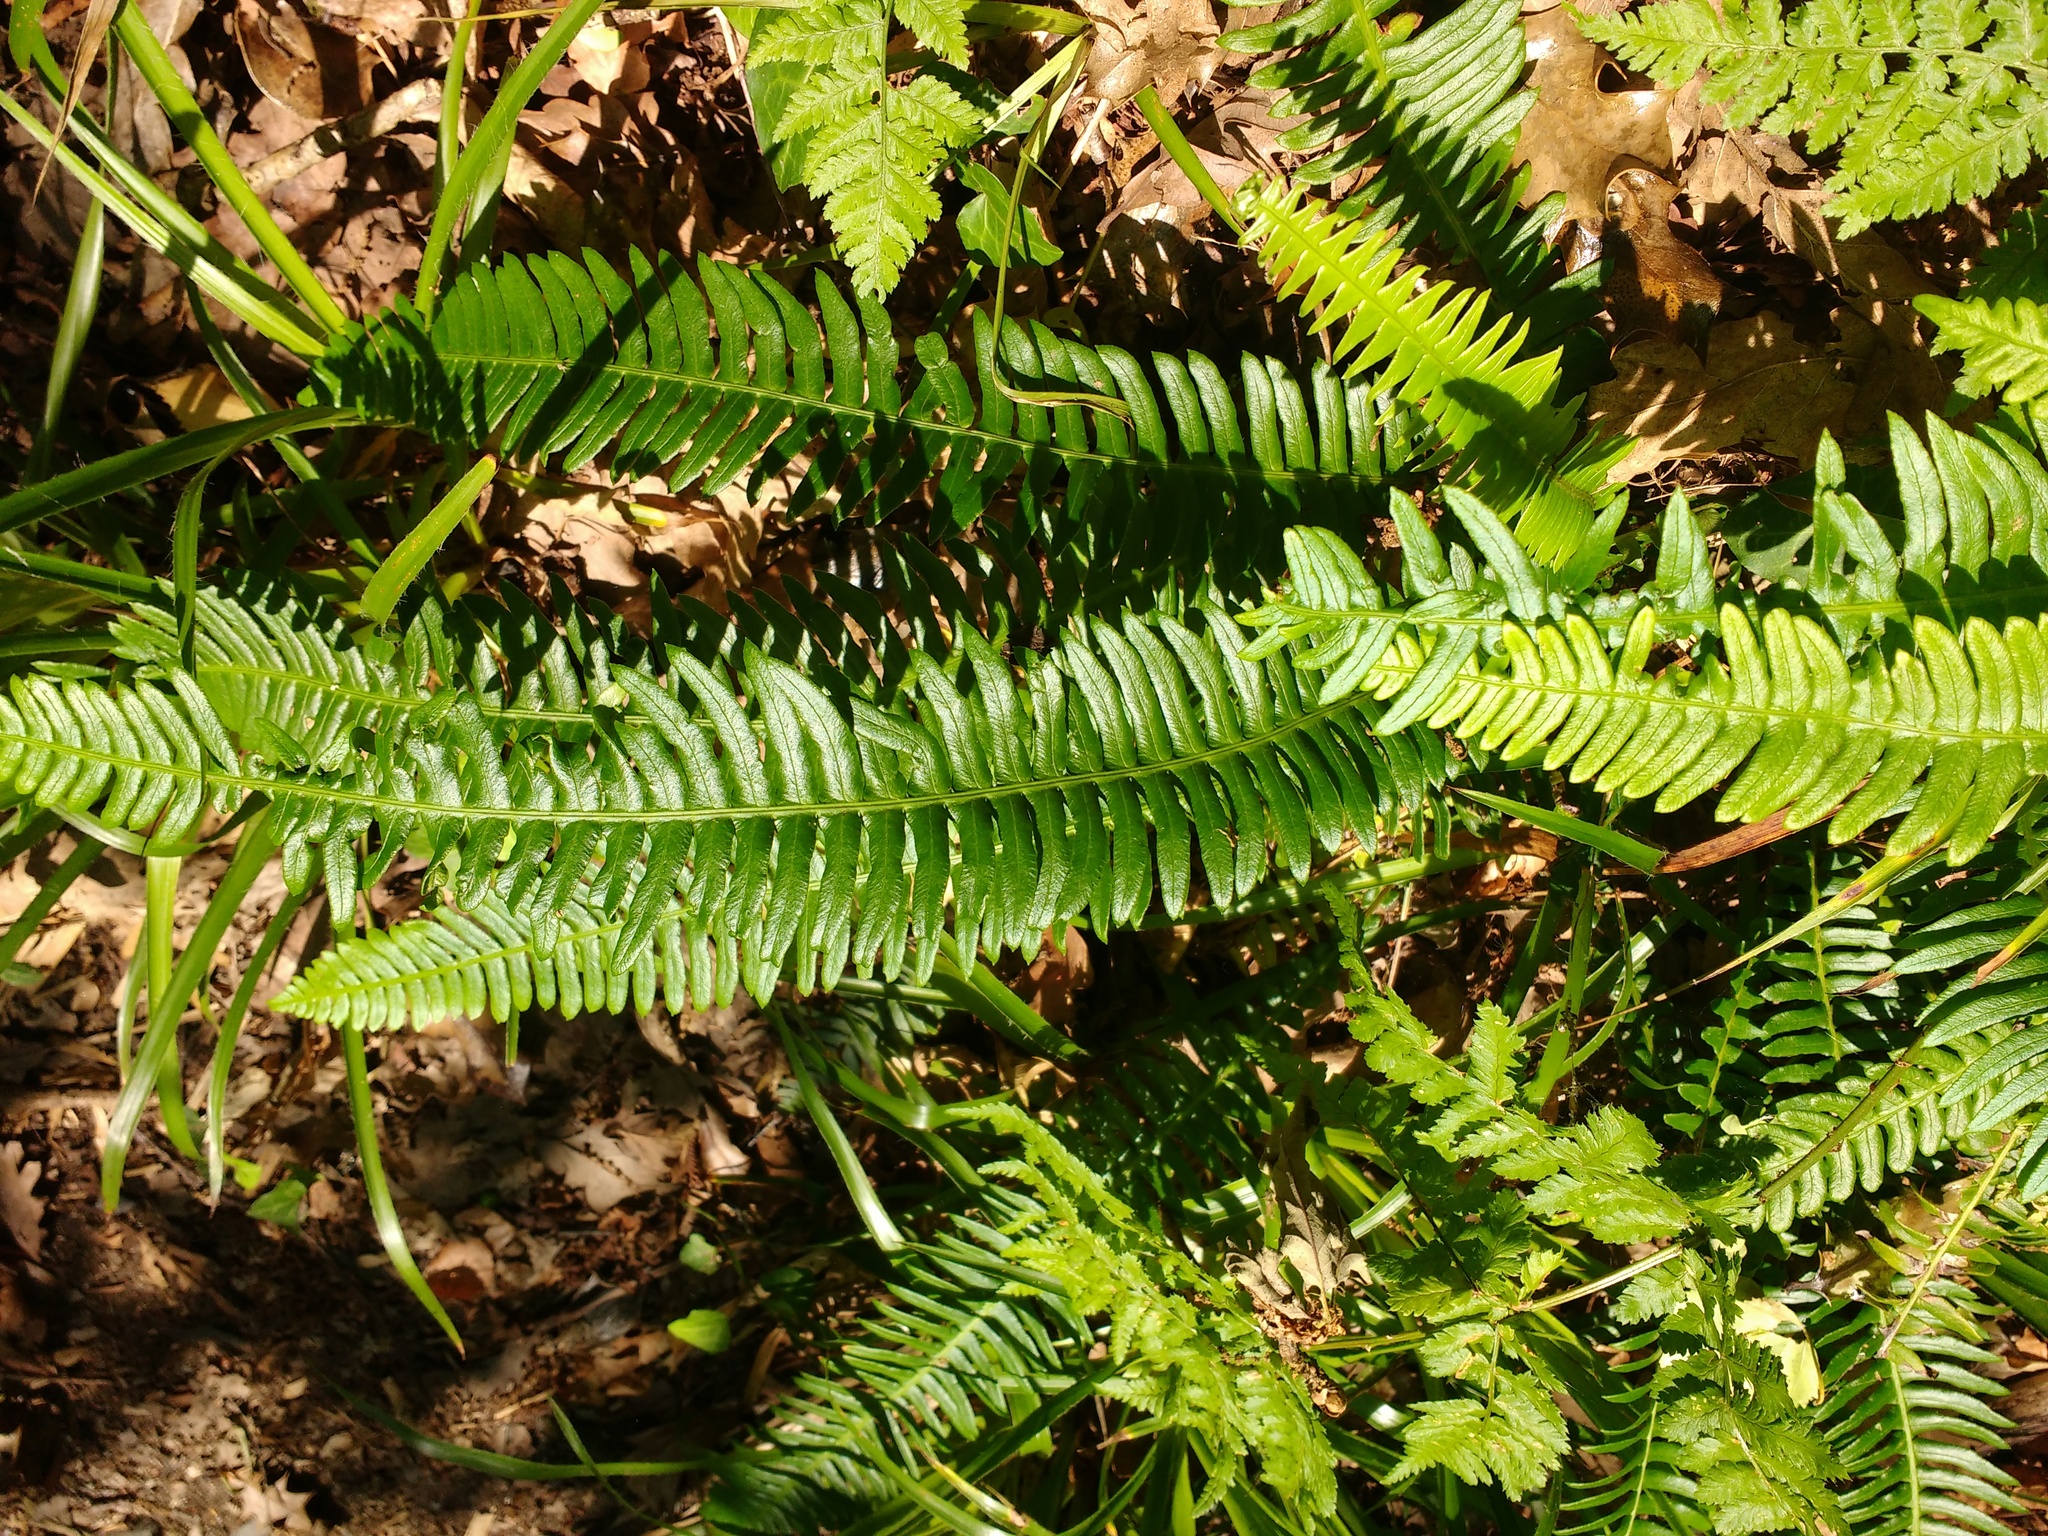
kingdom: Plantae
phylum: Tracheophyta
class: Polypodiopsida
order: Polypodiales
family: Blechnaceae
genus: Struthiopteris
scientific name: Struthiopteris spicant
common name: Deer fern
